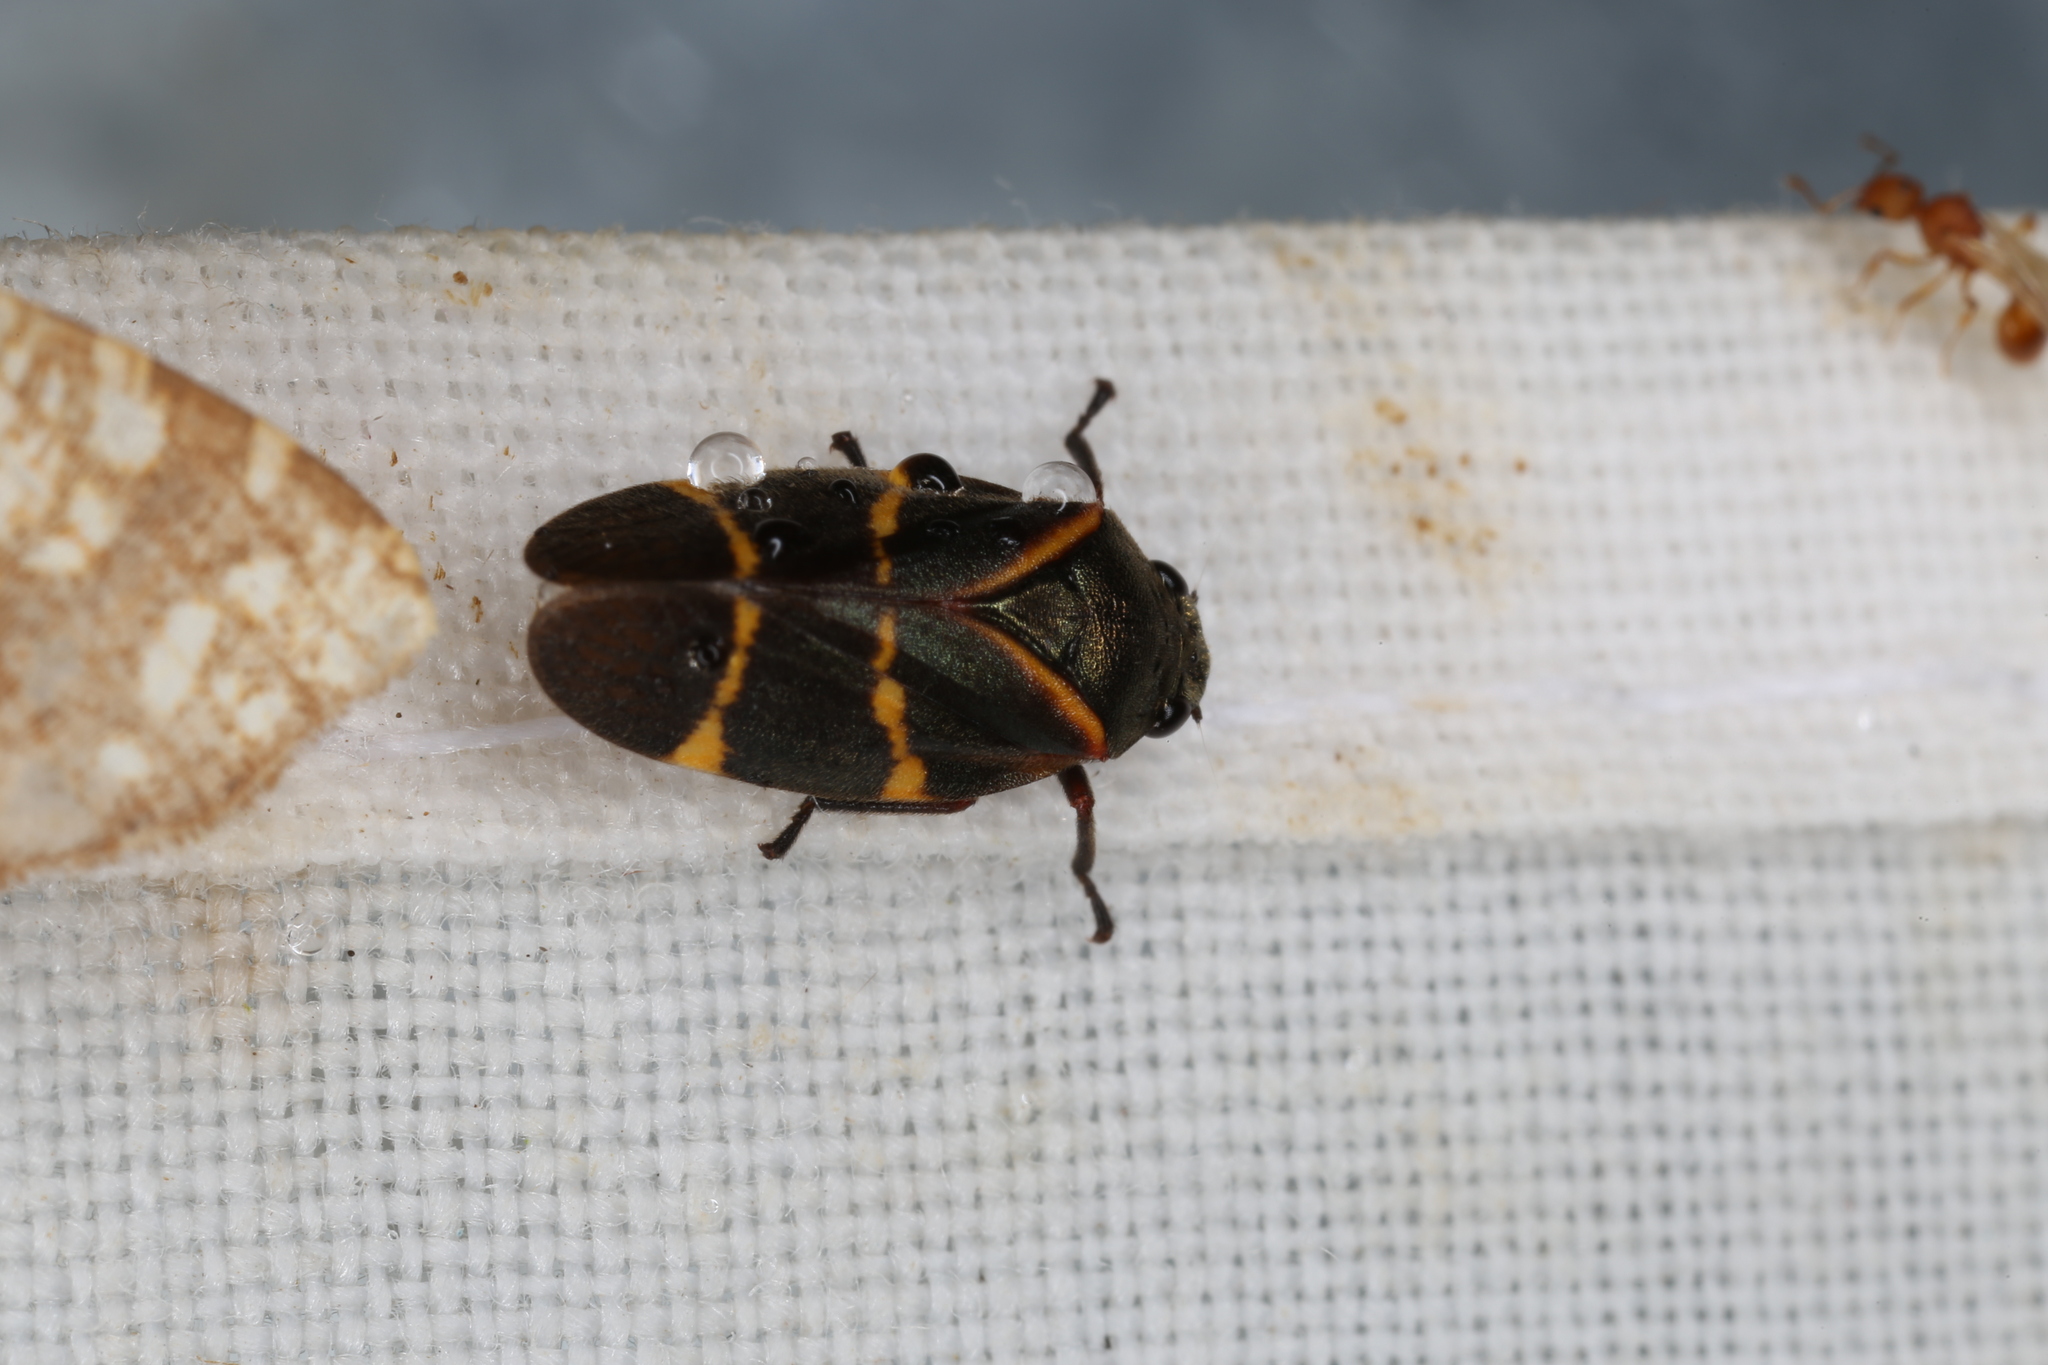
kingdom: Animalia
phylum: Arthropoda
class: Insecta
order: Hemiptera
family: Cercopidae
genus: Aeneolamia
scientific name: Aeneolamia contigua
